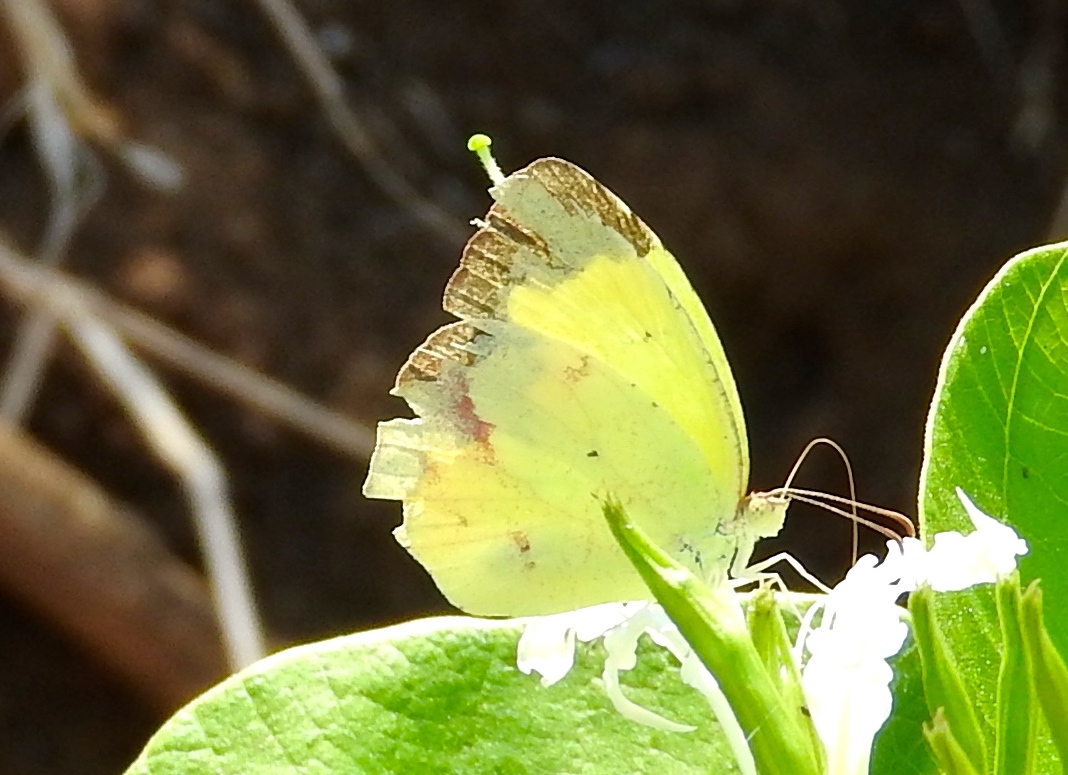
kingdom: Animalia
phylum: Arthropoda
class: Insecta
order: Lepidoptera
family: Pieridae
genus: Abaeis
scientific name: Abaeis mexicana
